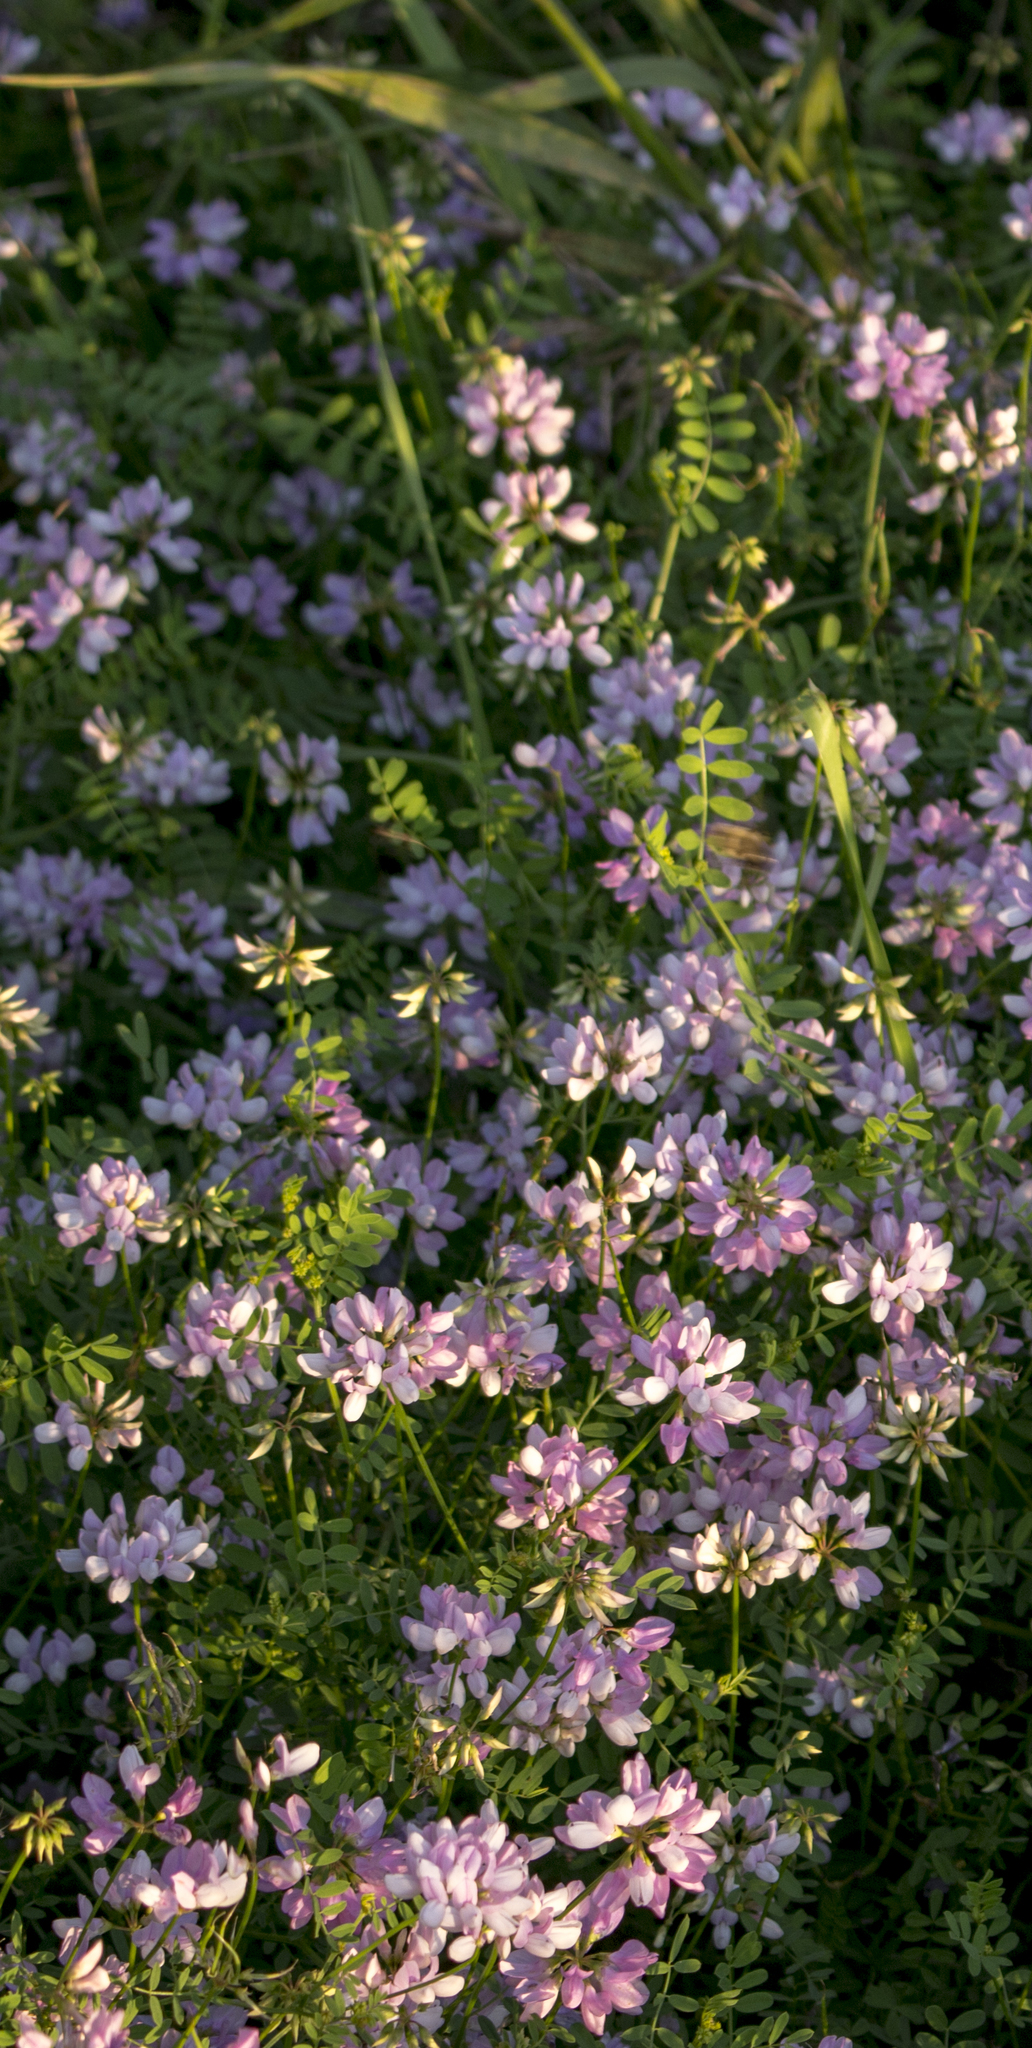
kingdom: Plantae
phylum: Tracheophyta
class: Magnoliopsida
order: Fabales
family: Fabaceae
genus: Coronilla
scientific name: Coronilla varia
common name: Crownvetch
